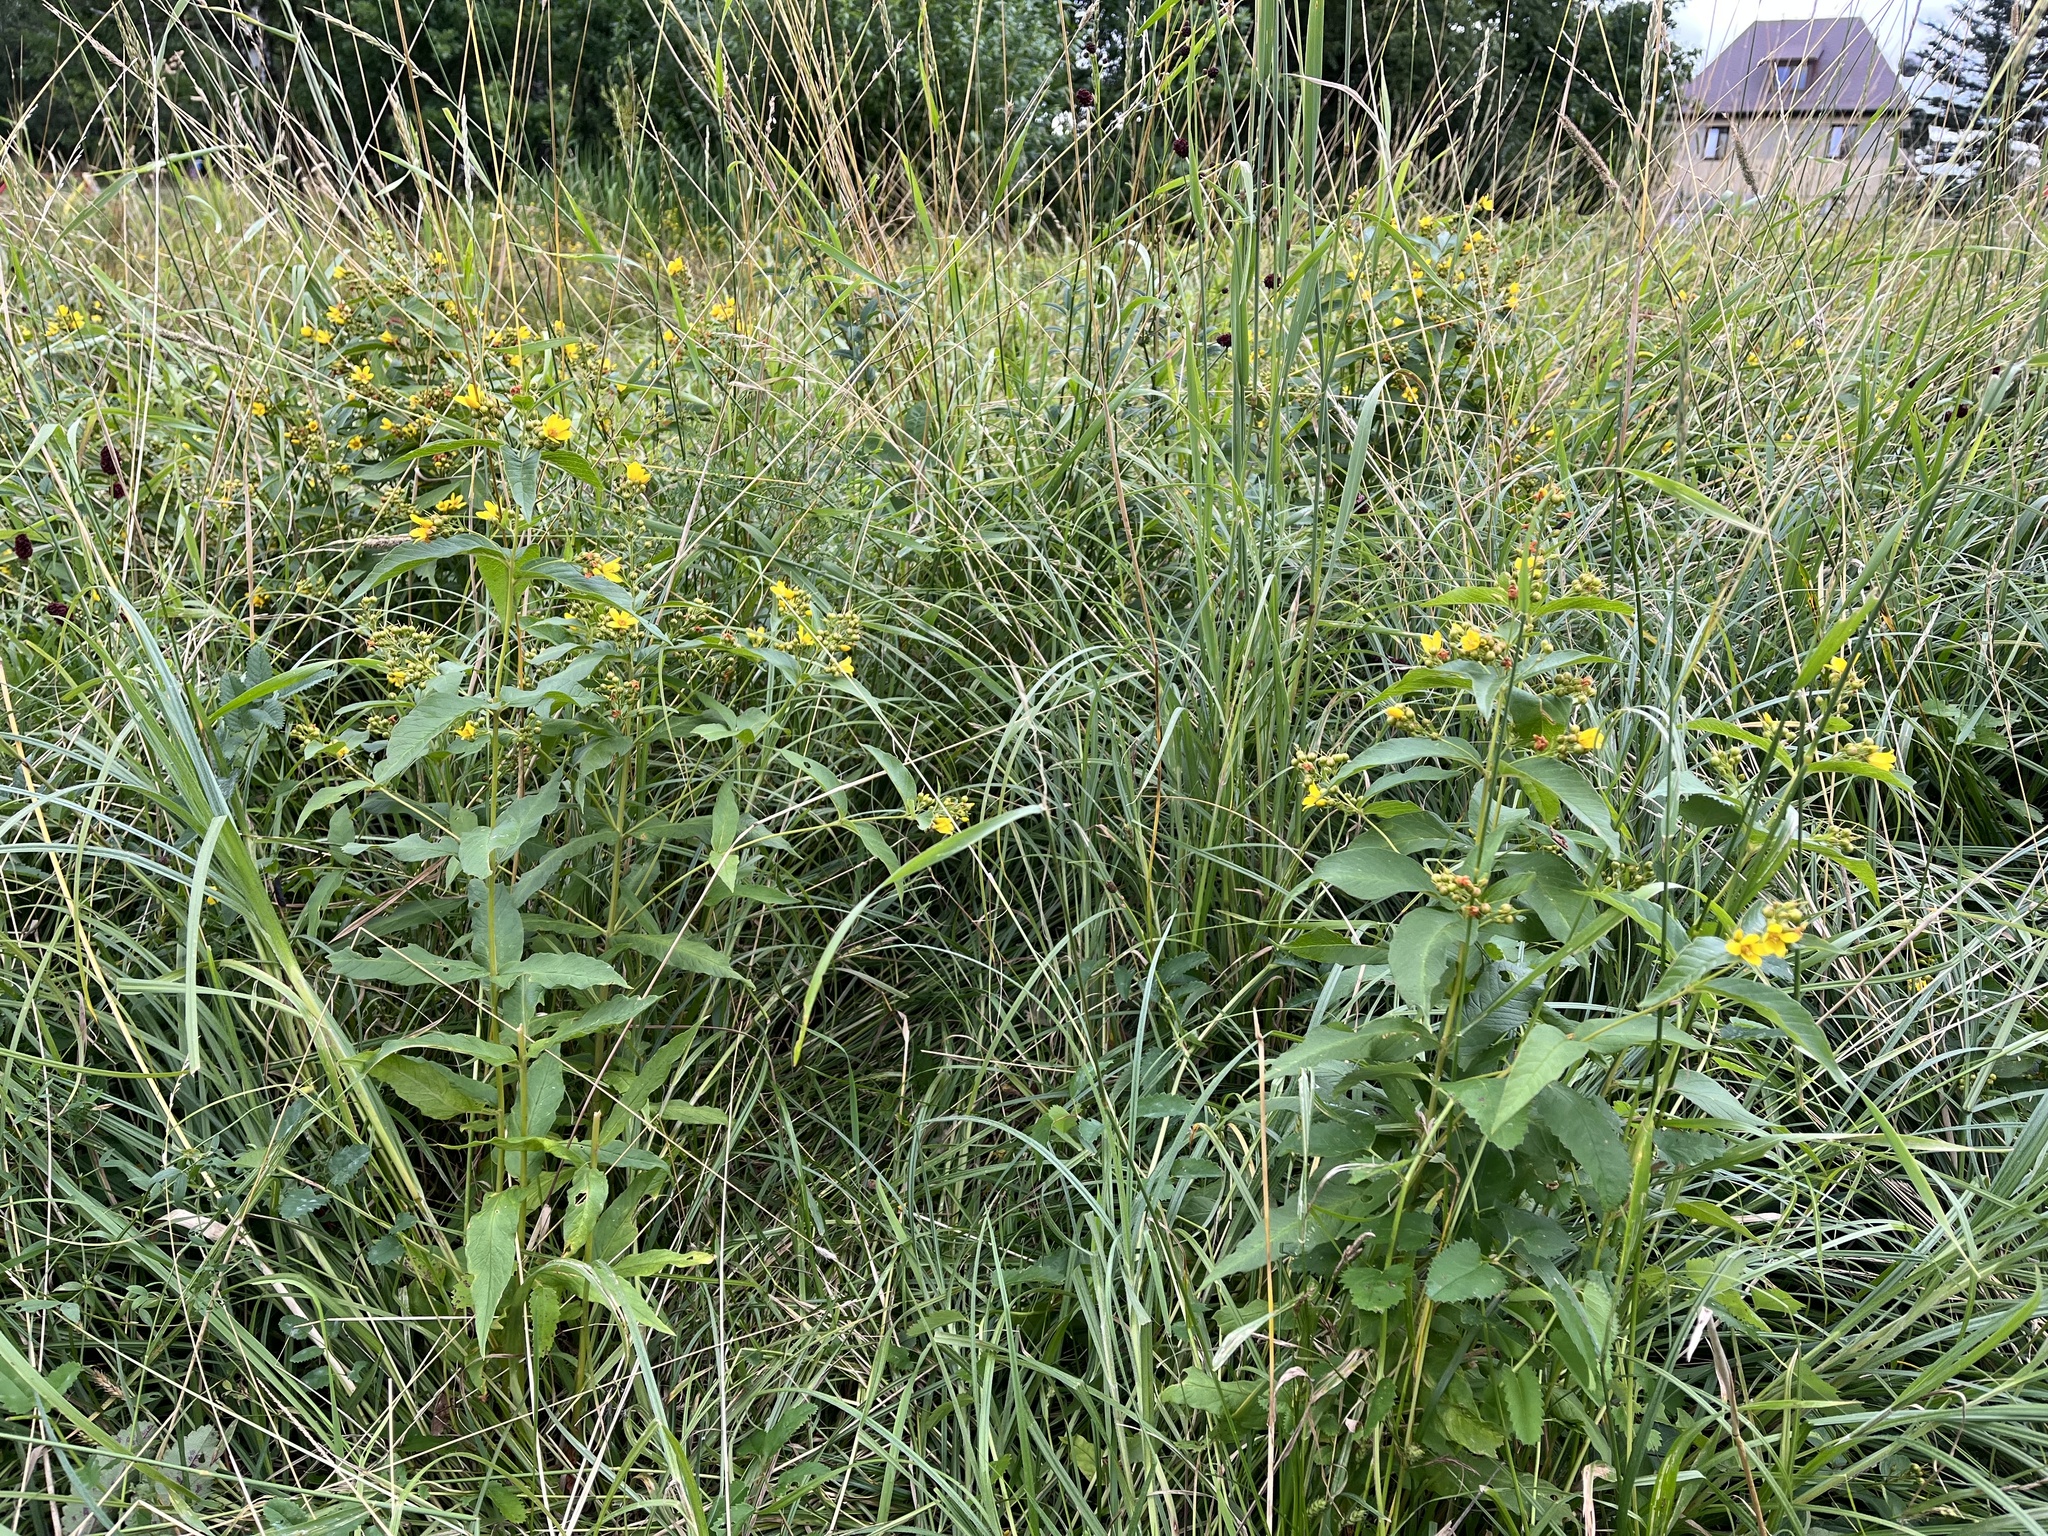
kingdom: Plantae
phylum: Tracheophyta
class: Magnoliopsida
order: Ericales
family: Primulaceae
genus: Lysimachia
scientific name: Lysimachia vulgaris
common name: Yellow loosestrife
